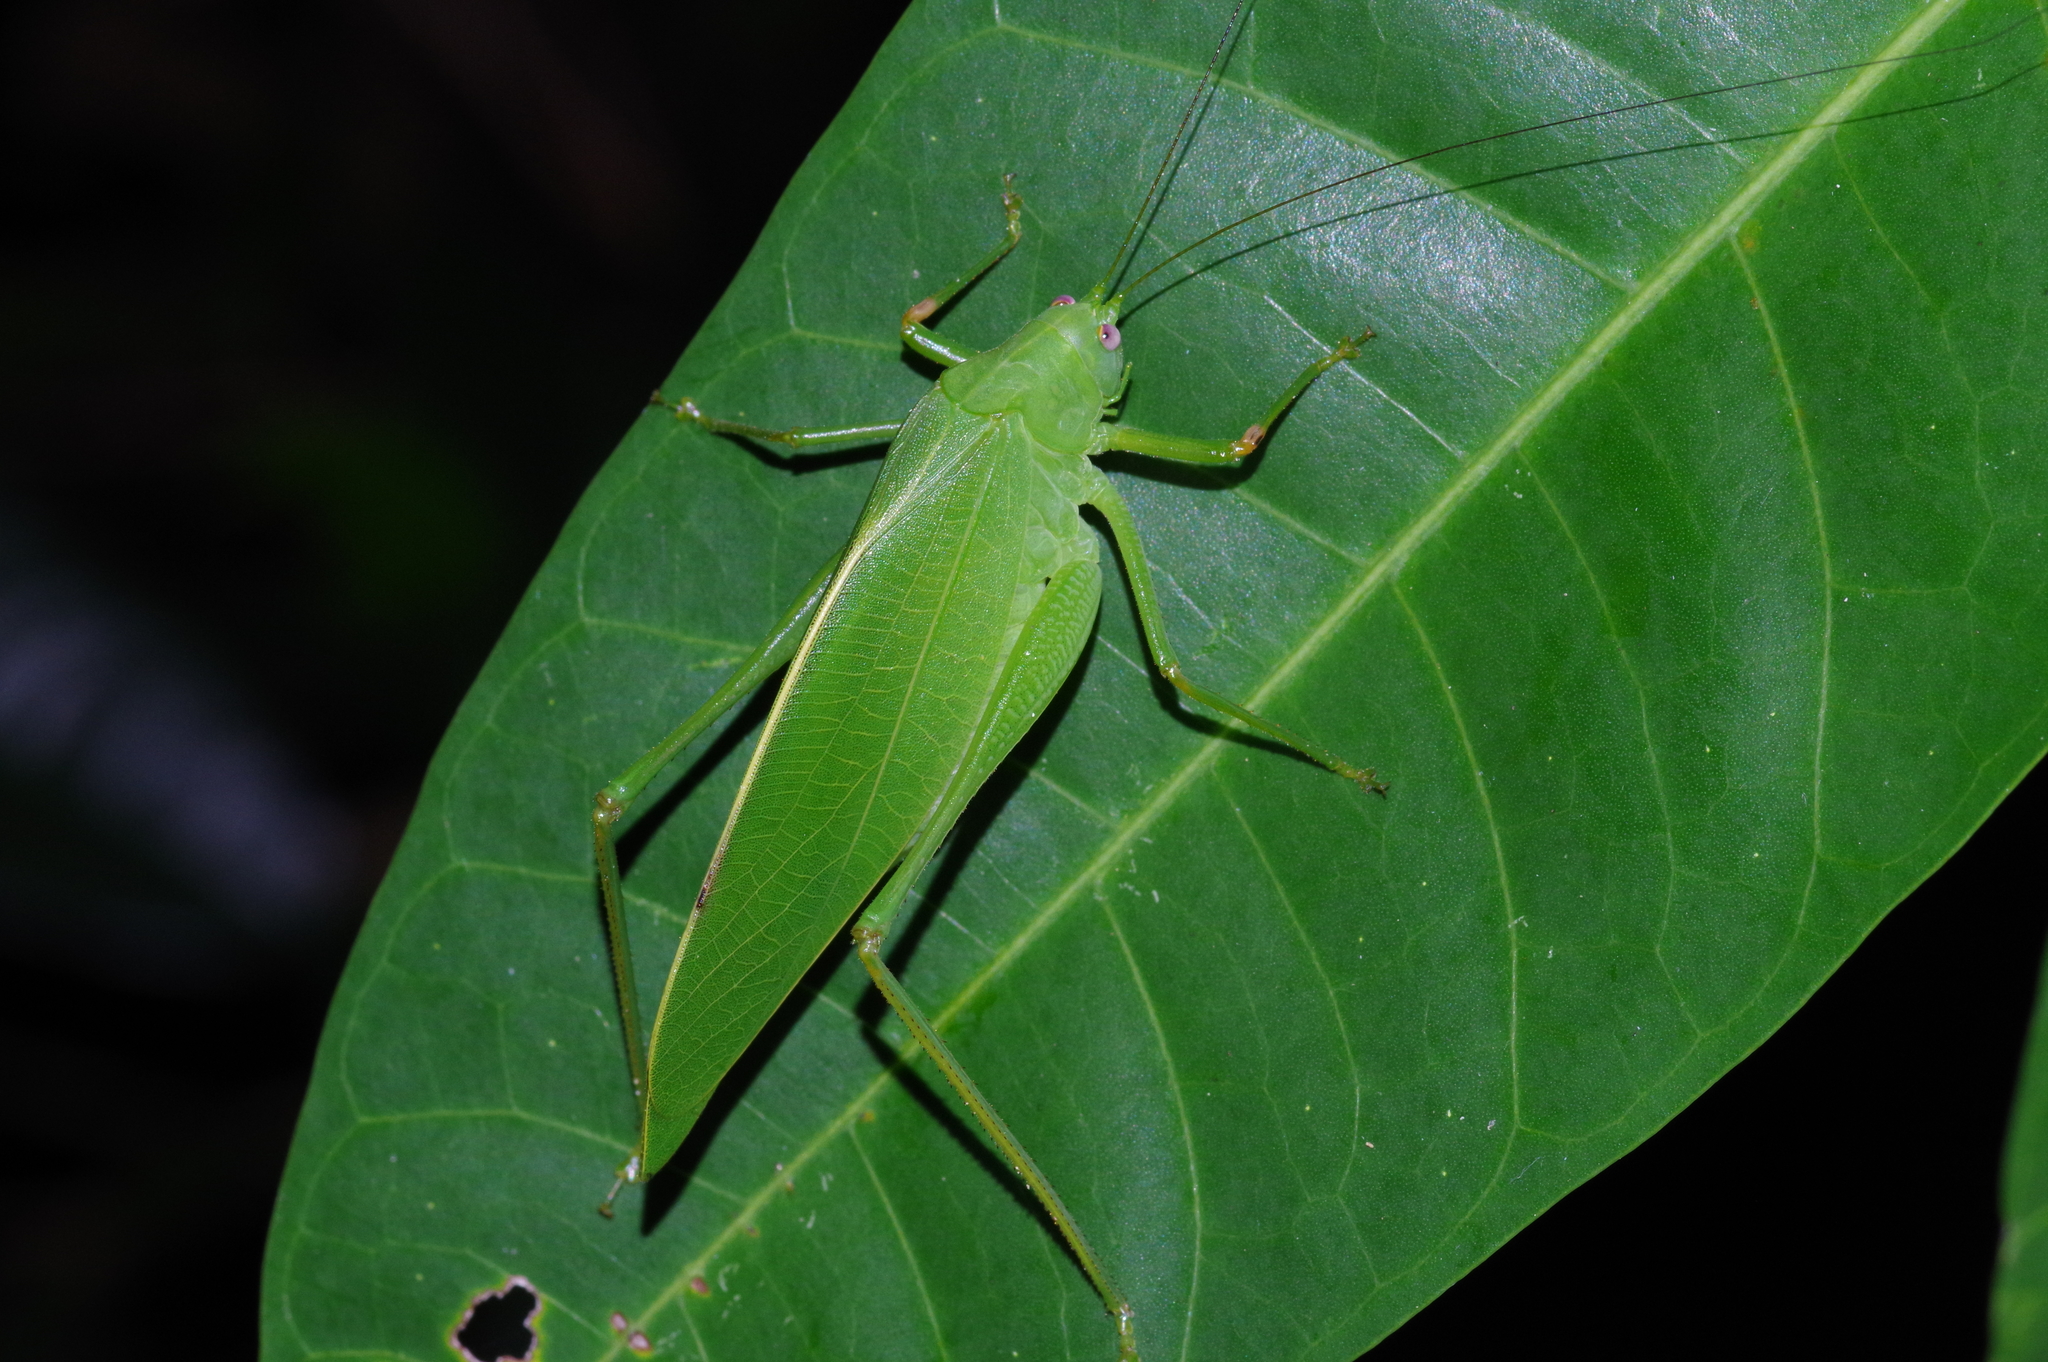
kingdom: Animalia
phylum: Arthropoda
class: Insecta
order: Orthoptera
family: Tettigoniidae
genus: Phaulula
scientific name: Phaulula daitoensis
